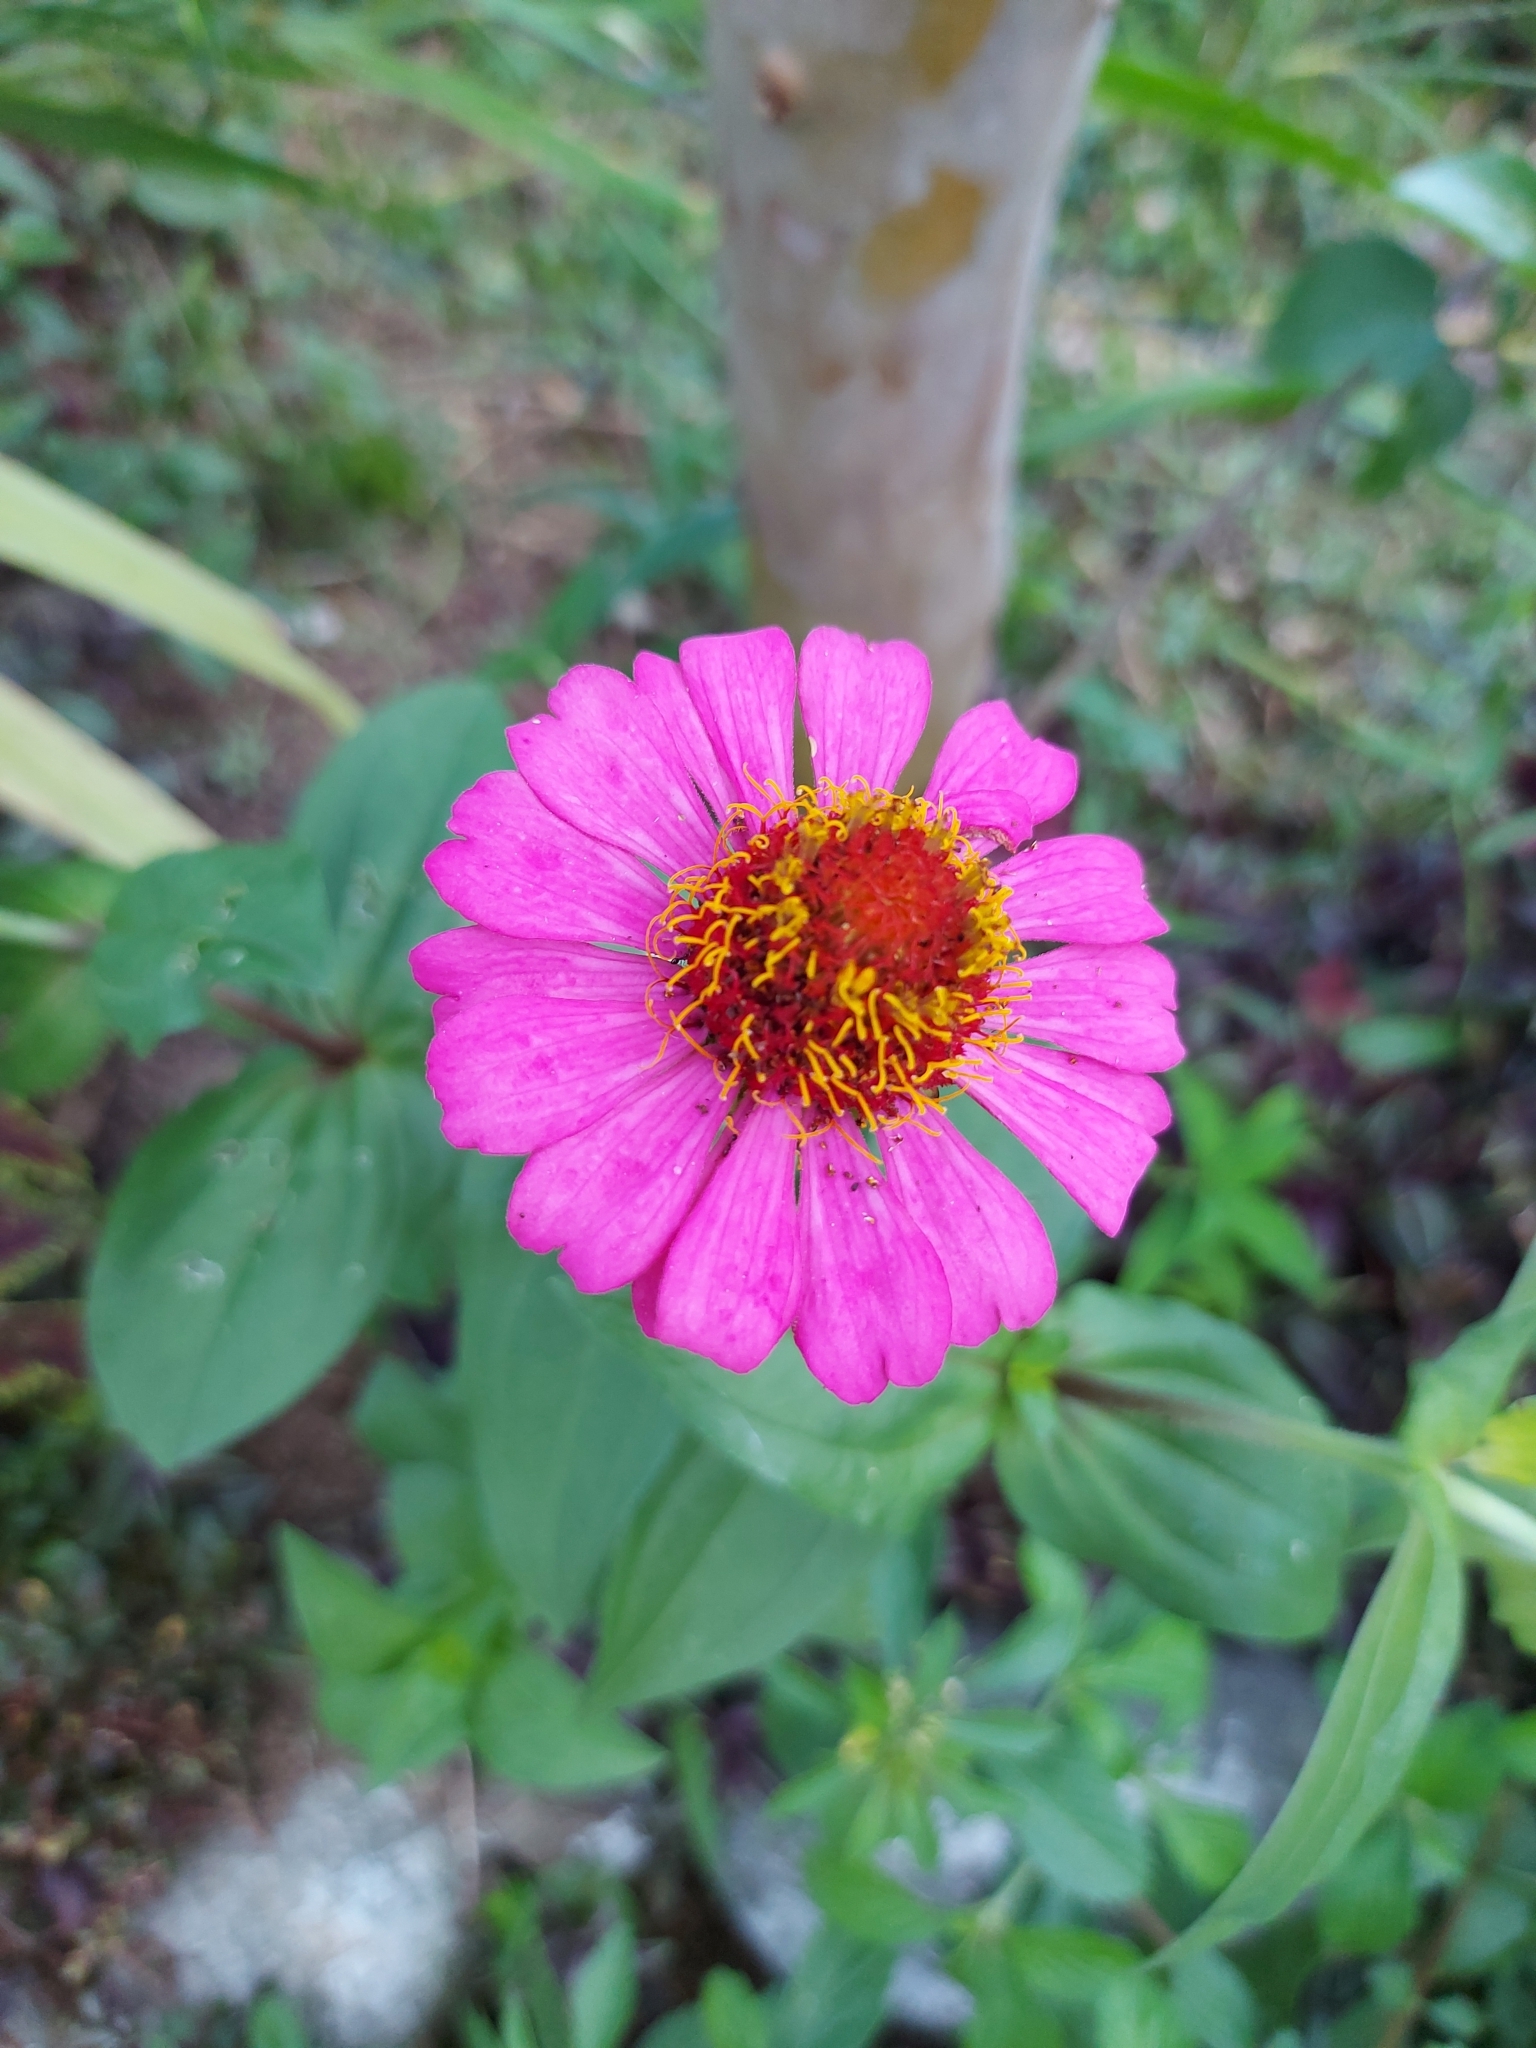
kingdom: Plantae
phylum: Tracheophyta
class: Magnoliopsida
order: Asterales
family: Asteraceae
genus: Zinnia
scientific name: Zinnia elegans
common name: Youth-and-age
